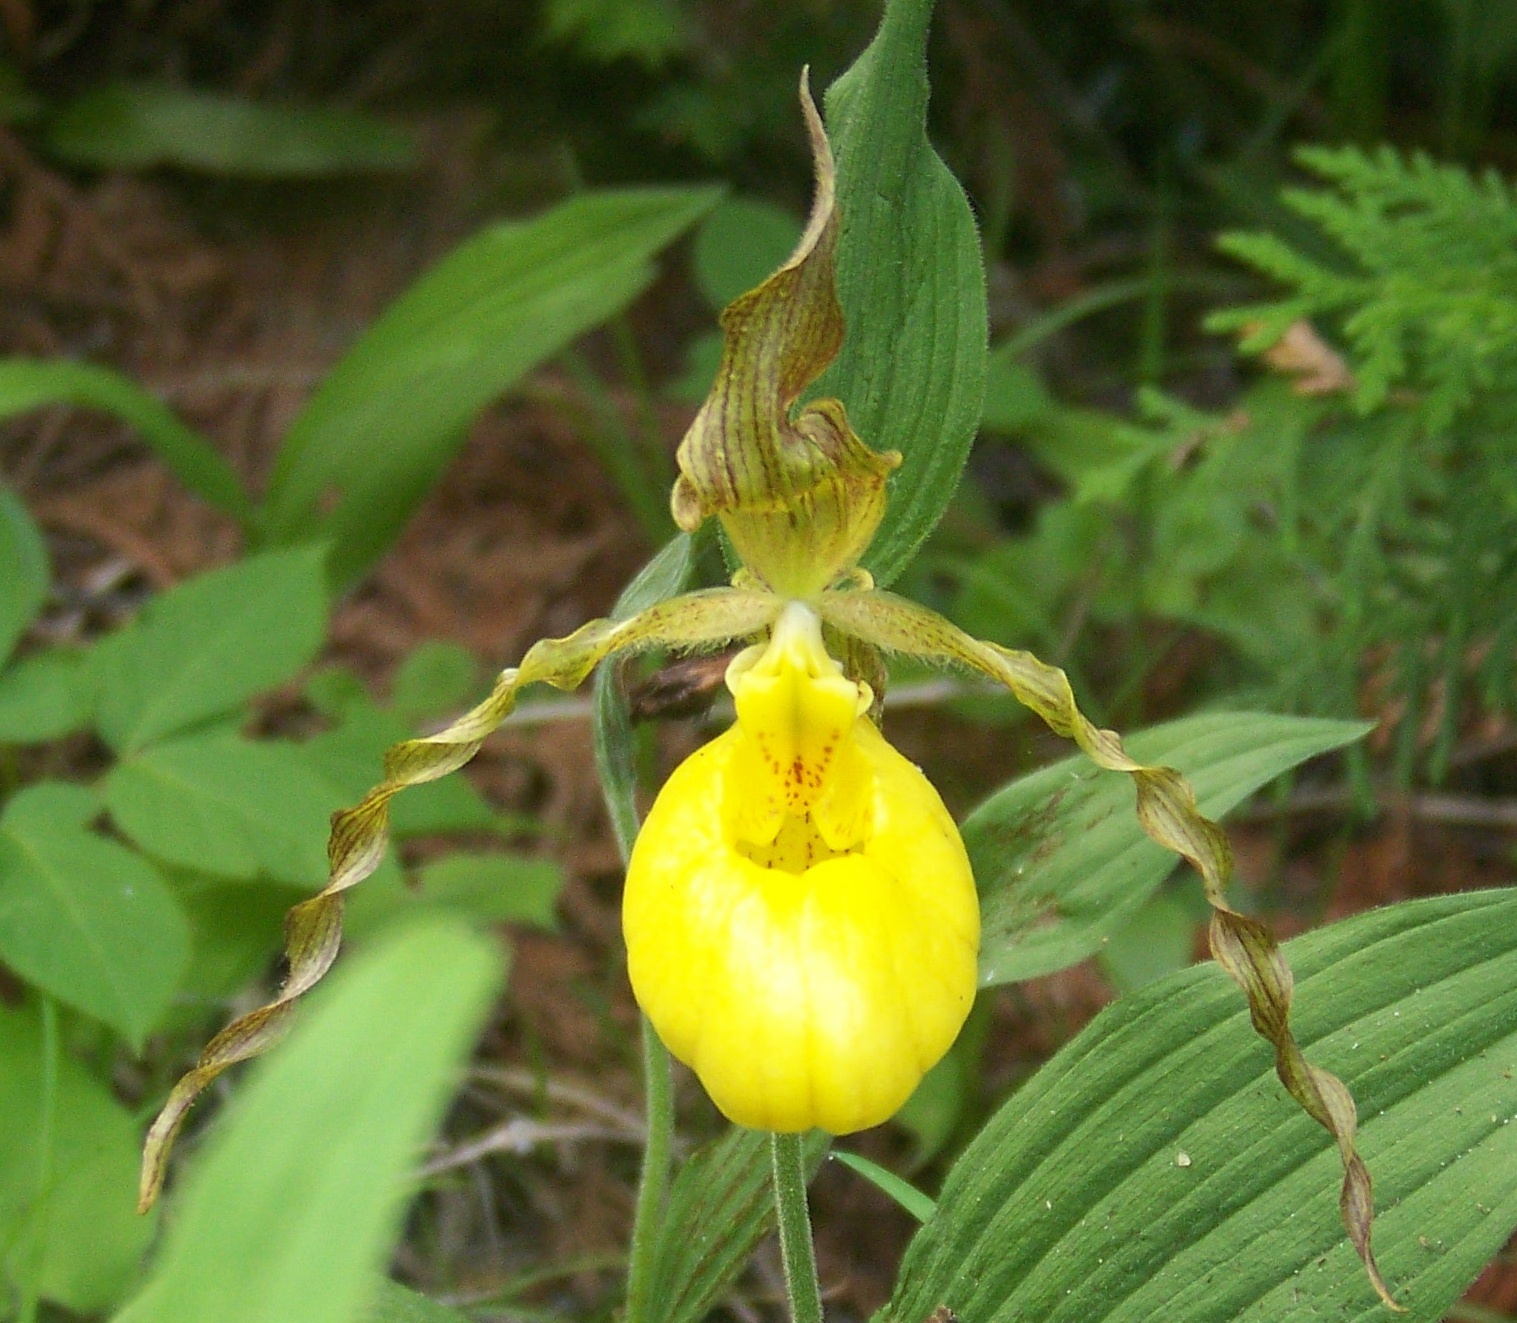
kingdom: Plantae
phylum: Tracheophyta
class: Liliopsida
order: Asparagales
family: Orchidaceae
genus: Cypripedium
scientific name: Cypripedium parviflorum
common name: American yellow lady's-slipper
